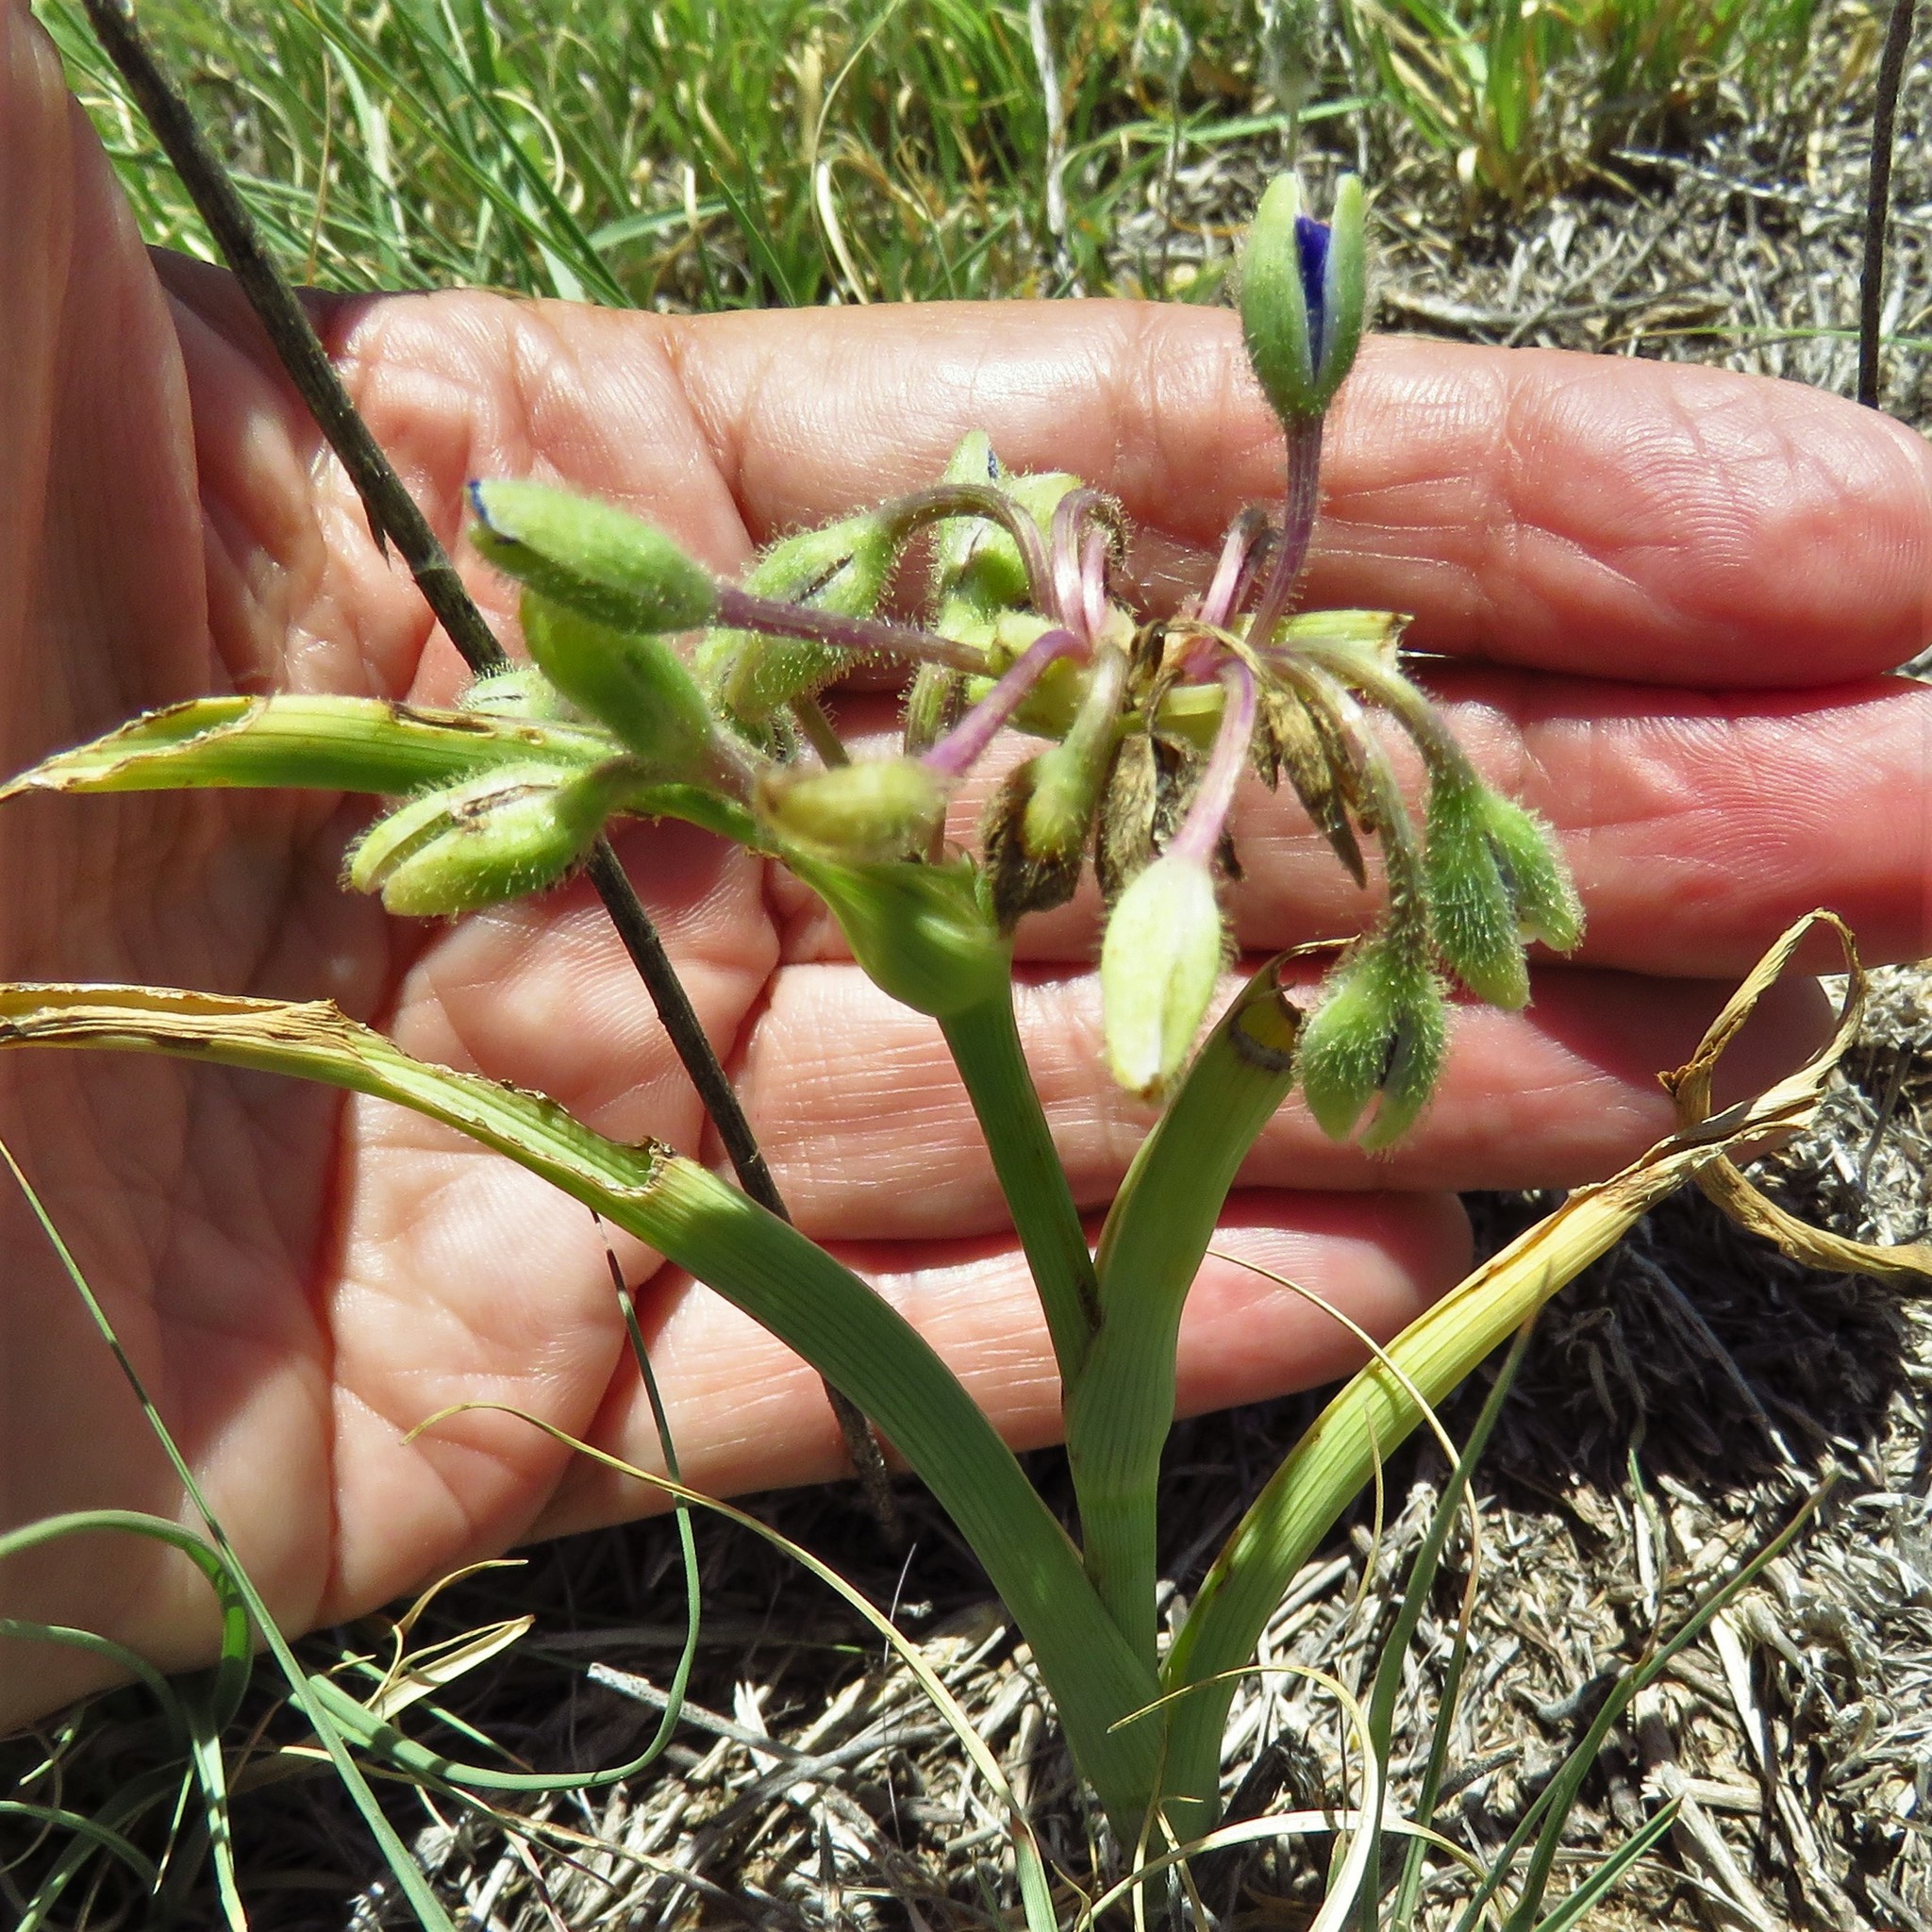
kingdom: Plantae
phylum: Tracheophyta
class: Liliopsida
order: Commelinales
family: Commelinaceae
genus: Tradescantia
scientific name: Tradescantia occidentalis
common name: Prairie spiderwort
